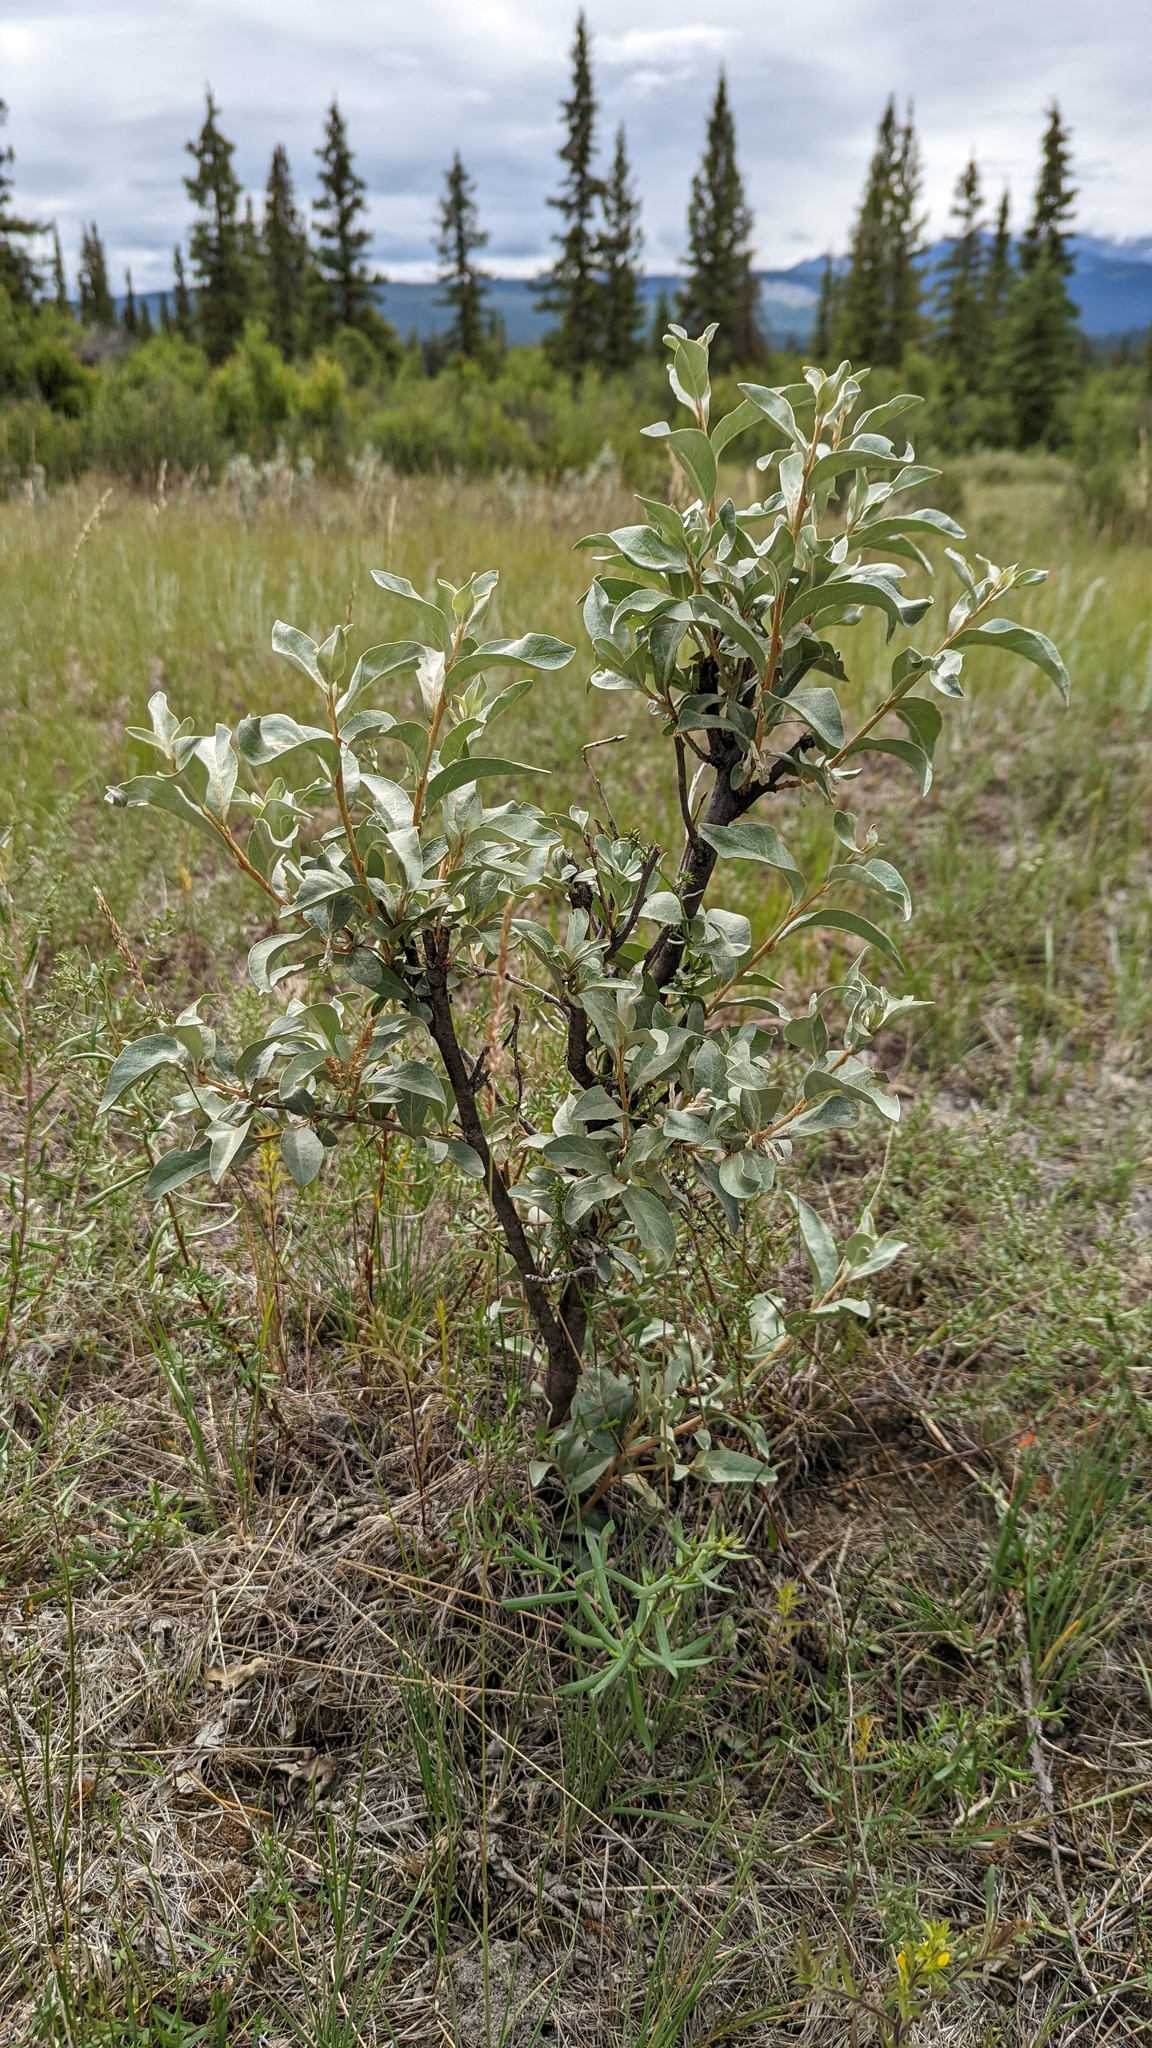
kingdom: Plantae
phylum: Tracheophyta
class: Magnoliopsida
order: Rosales
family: Elaeagnaceae
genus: Elaeagnus
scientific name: Elaeagnus commutata
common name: Silverberry
